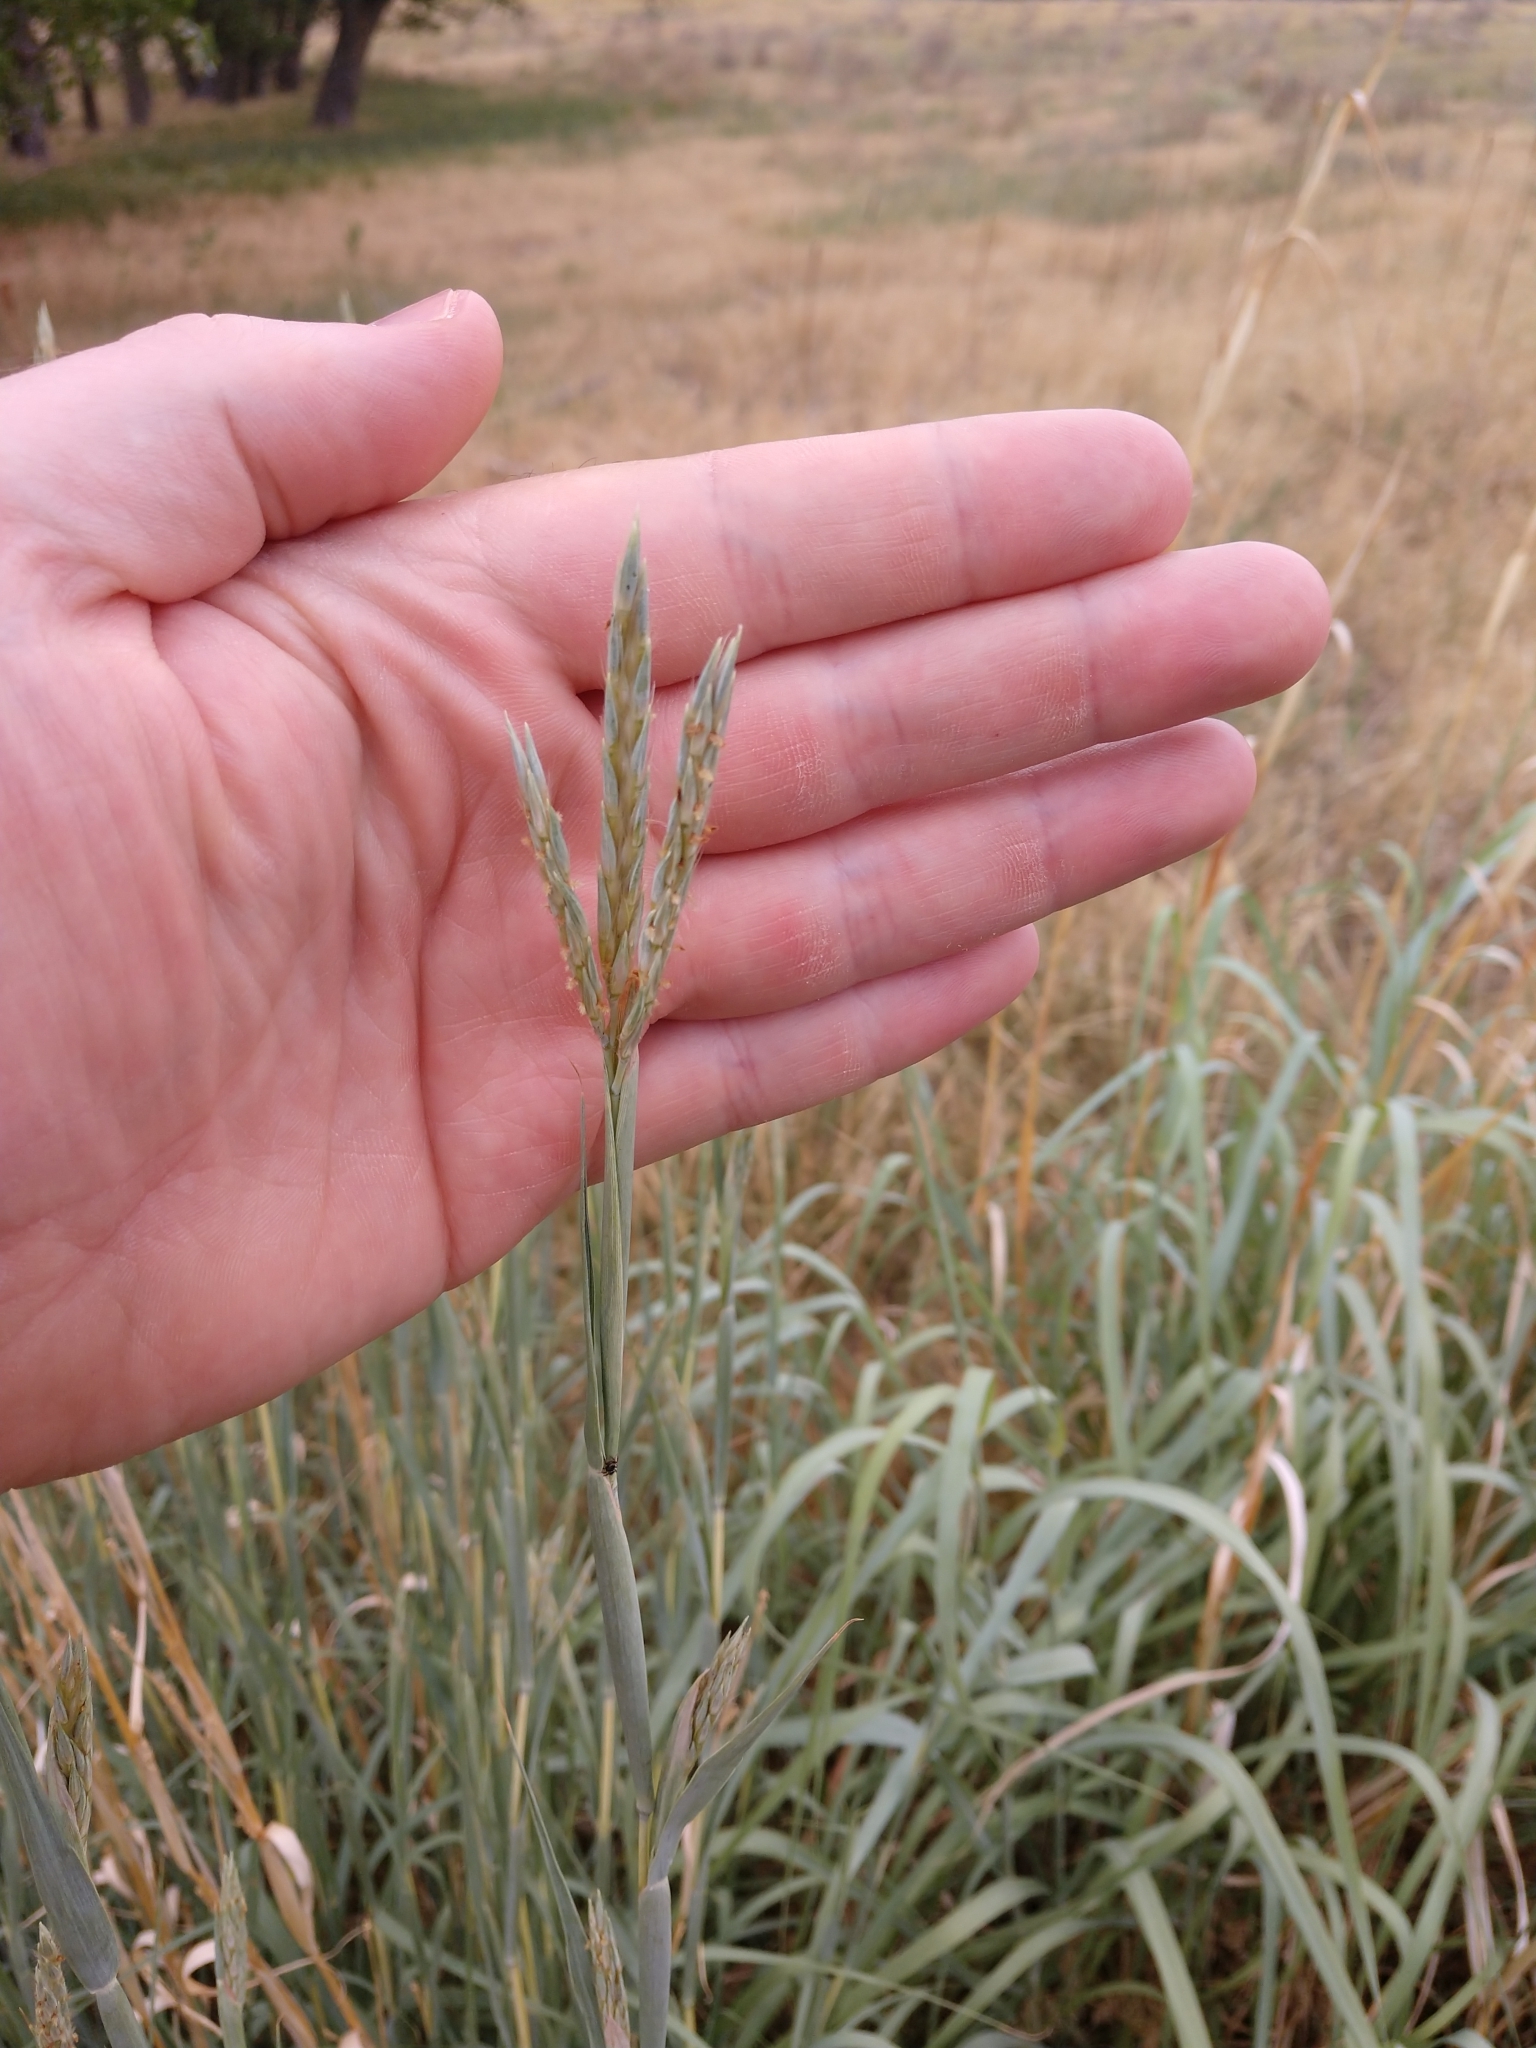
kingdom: Plantae
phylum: Tracheophyta
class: Liliopsida
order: Poales
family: Poaceae
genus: Andropogon
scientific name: Andropogon hallii
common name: Sand bluestem
